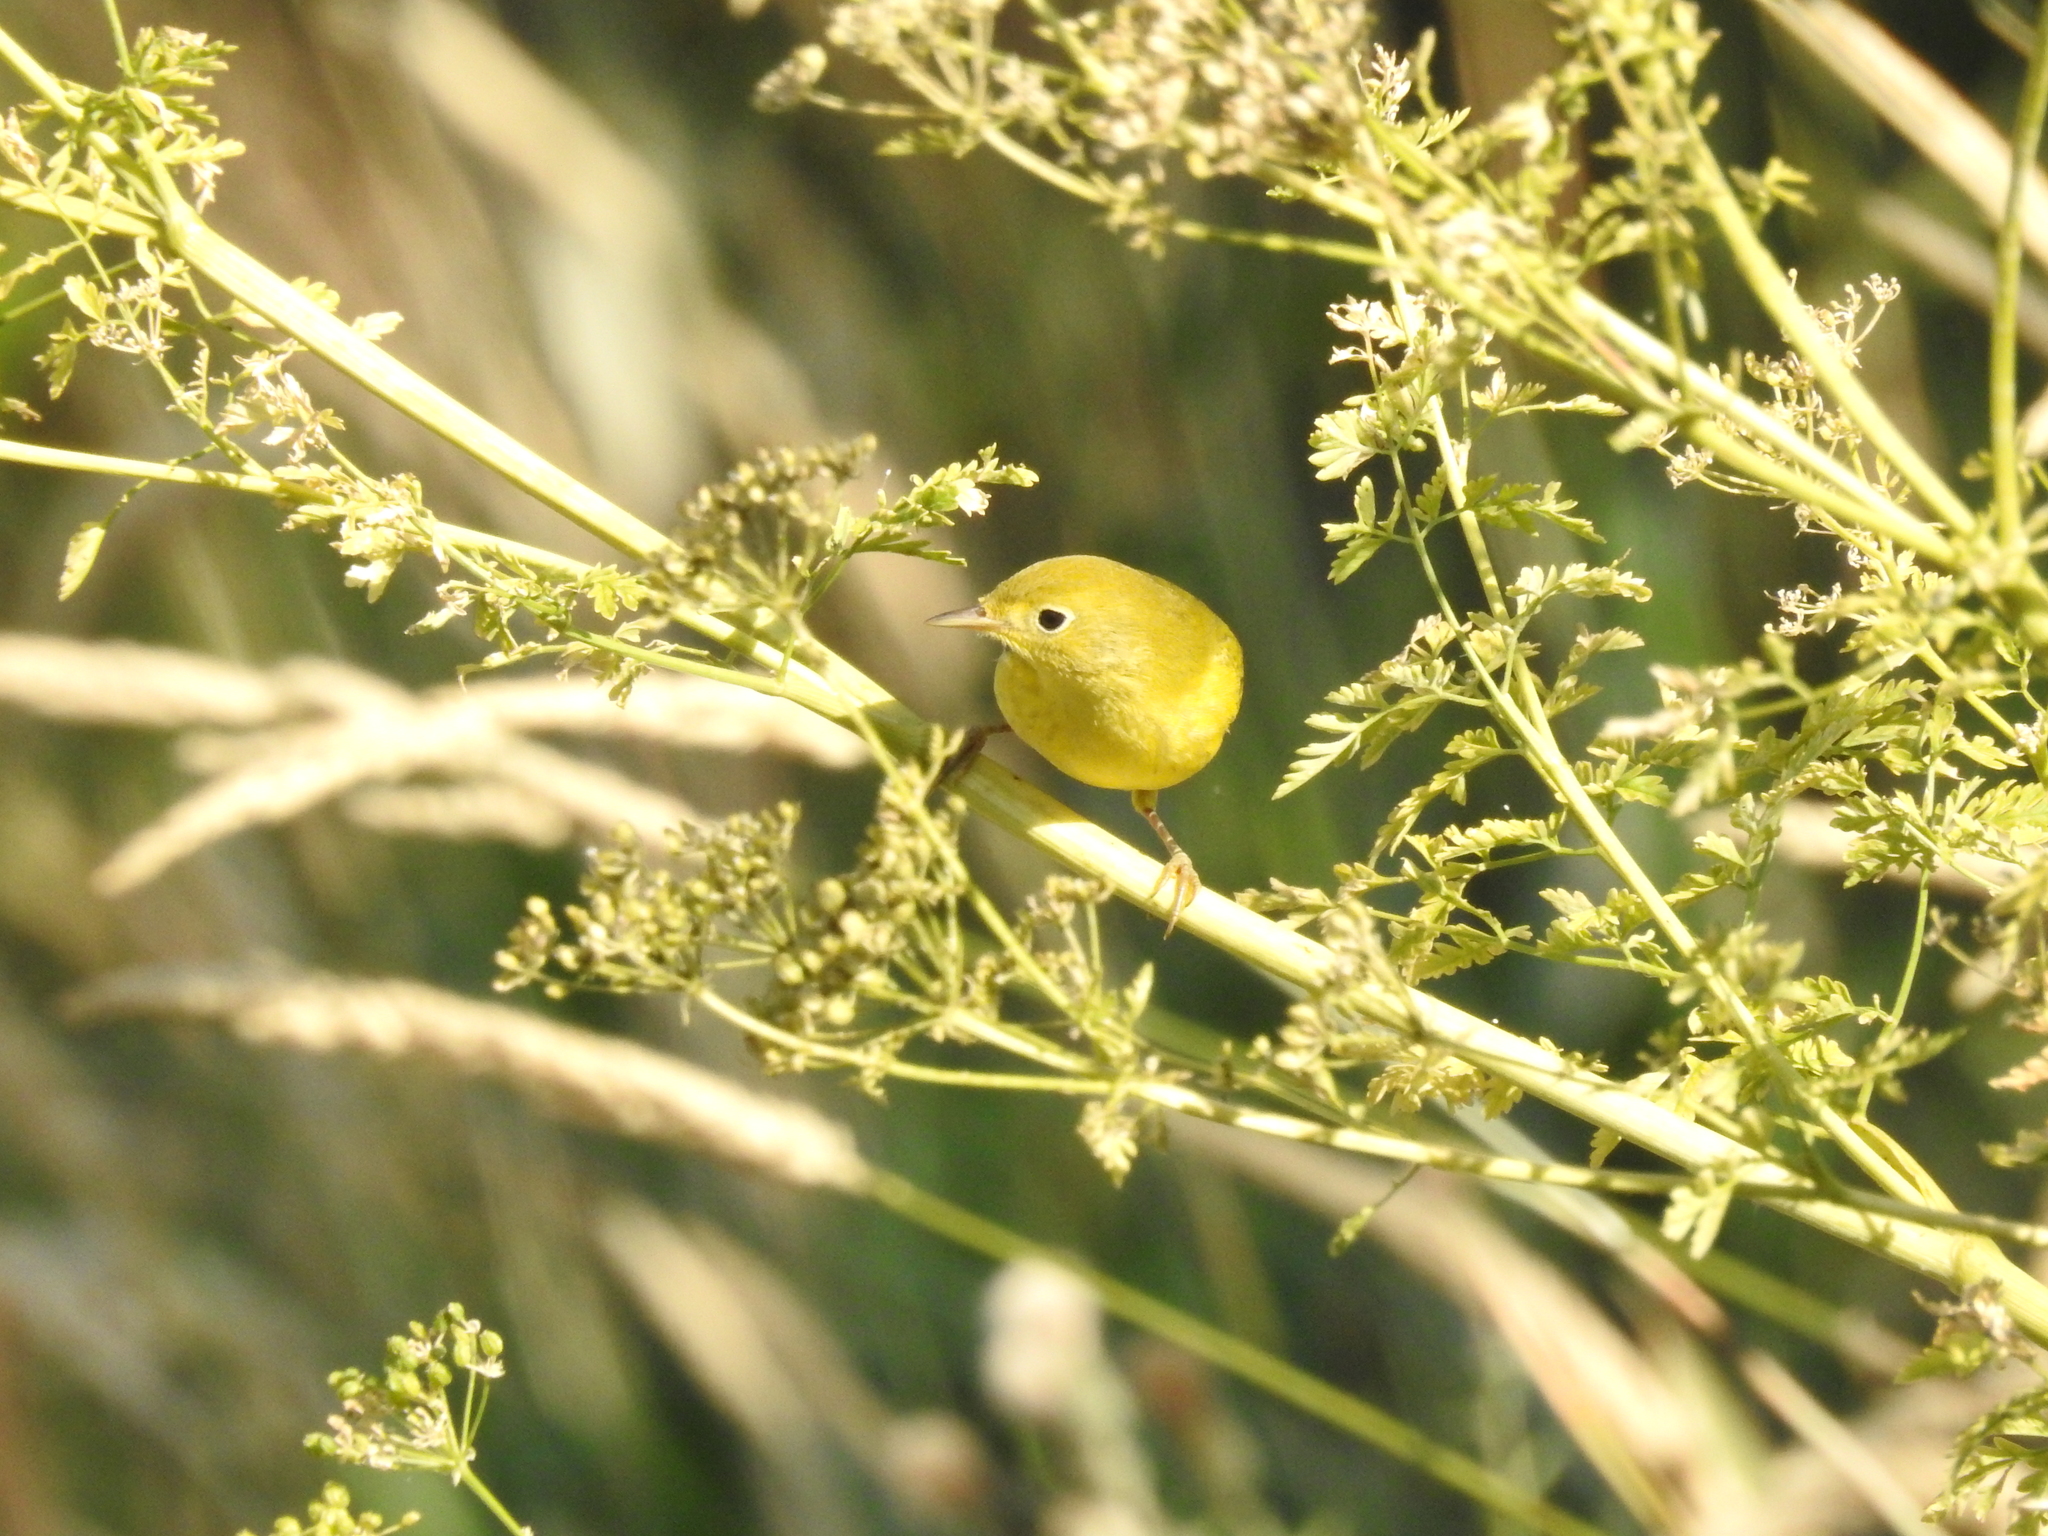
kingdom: Animalia
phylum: Chordata
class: Aves
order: Passeriformes
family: Parulidae
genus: Setophaga
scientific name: Setophaga petechia
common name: Yellow warbler
